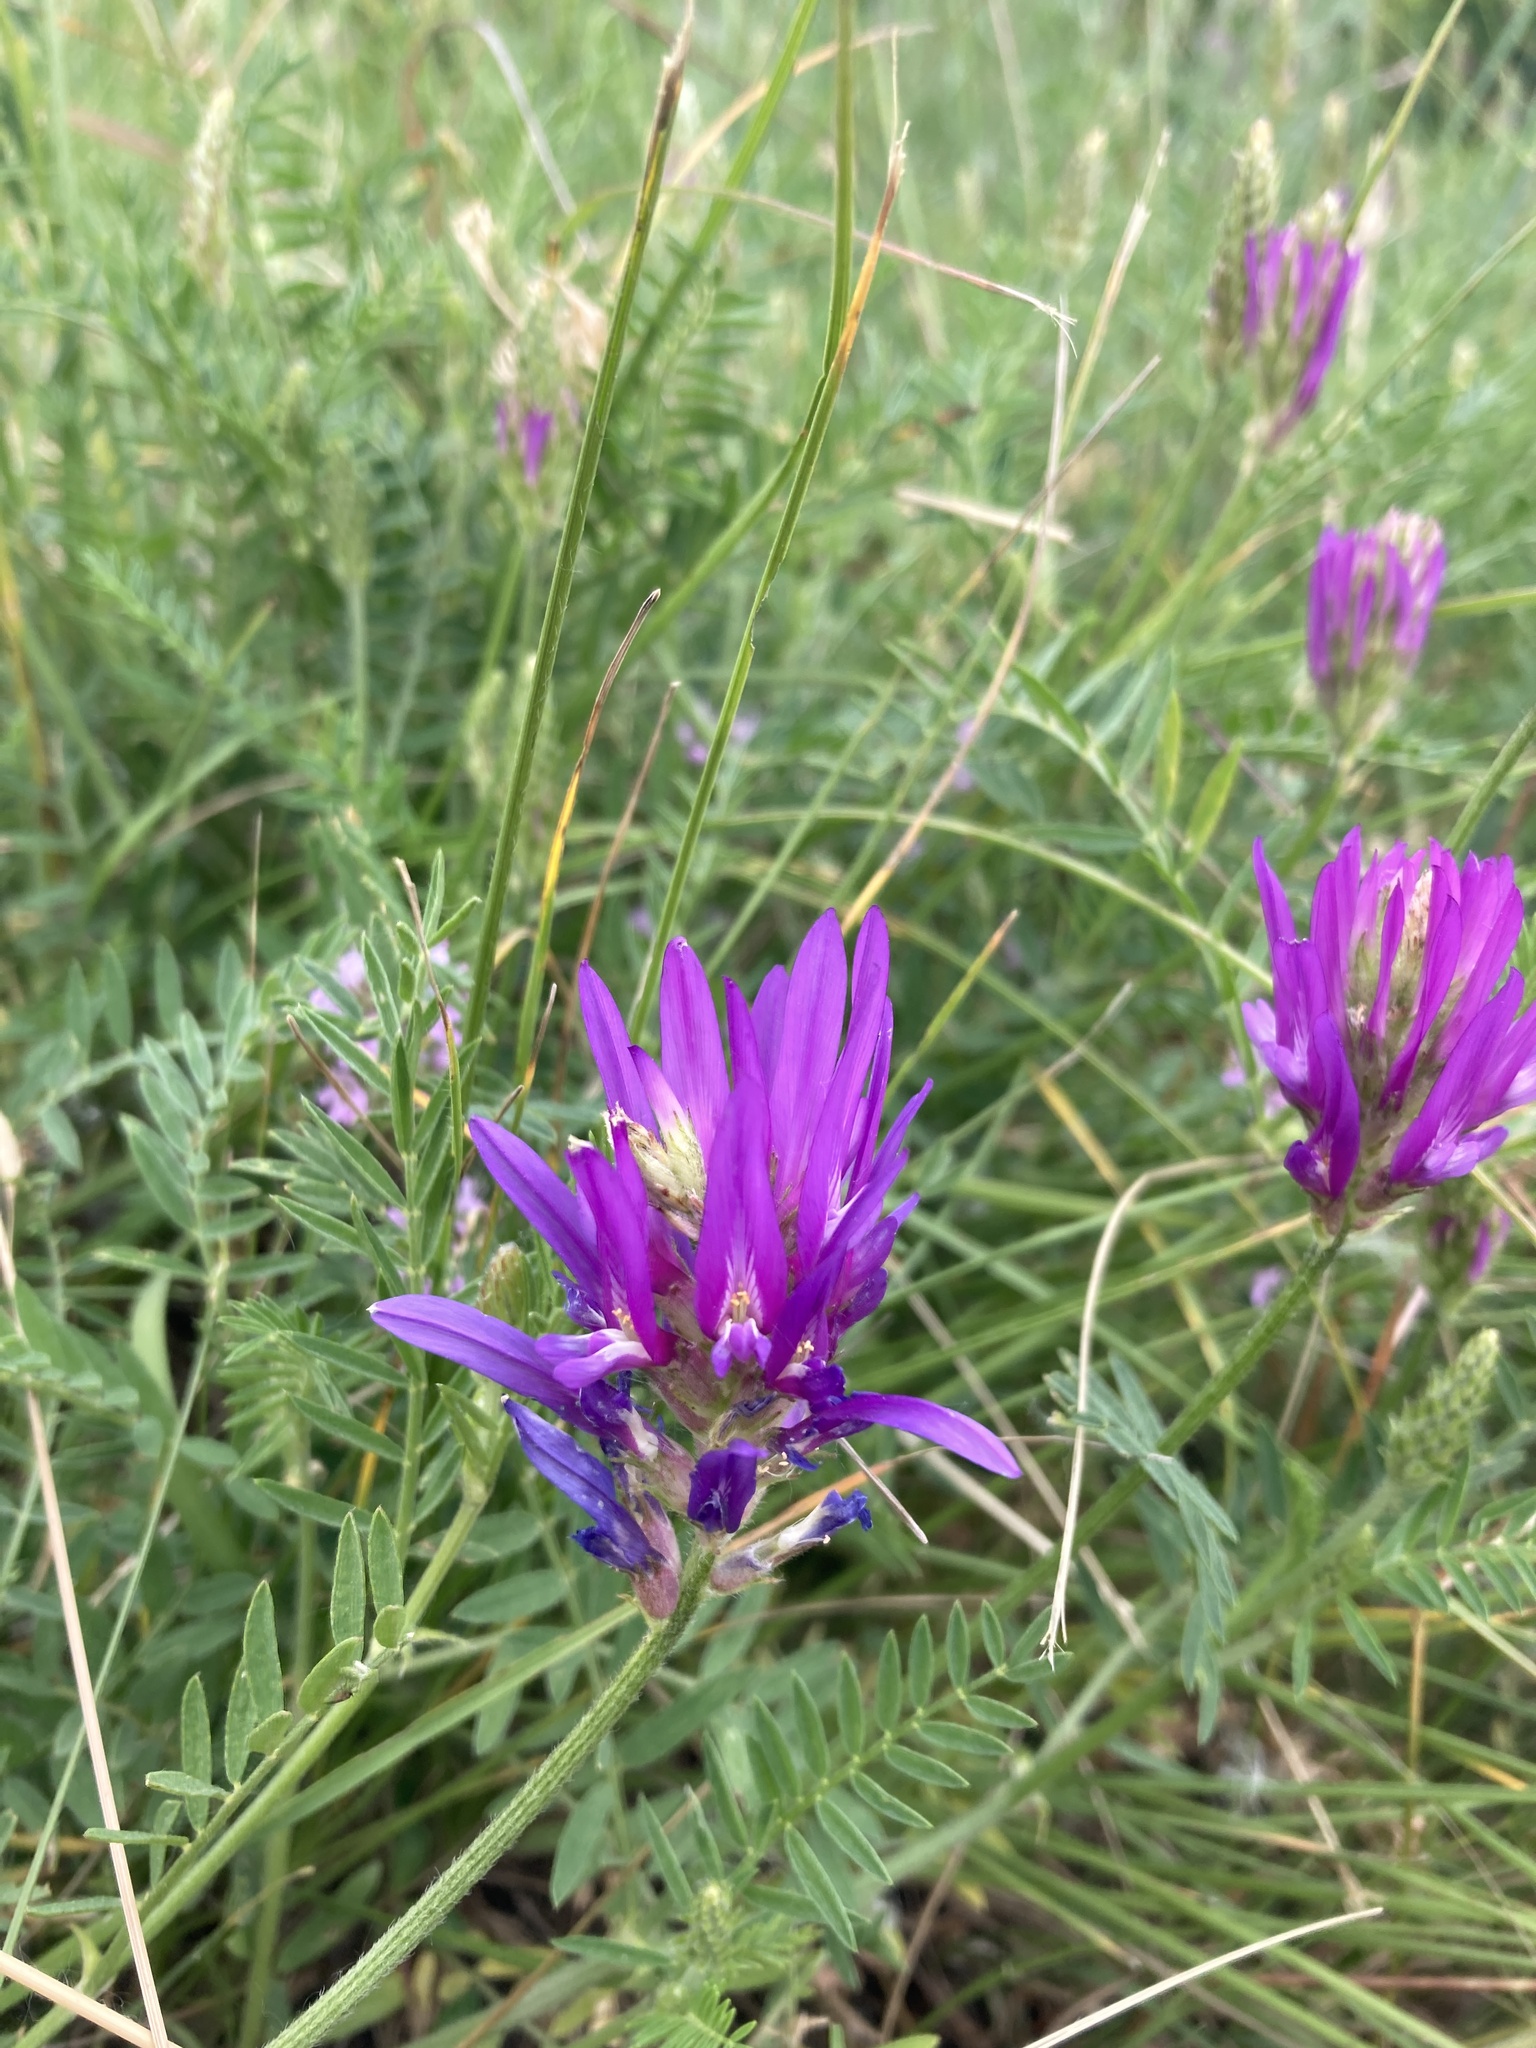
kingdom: Plantae
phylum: Tracheophyta
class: Magnoliopsida
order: Fabales
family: Fabaceae
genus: Astragalus
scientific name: Astragalus onobrychis
